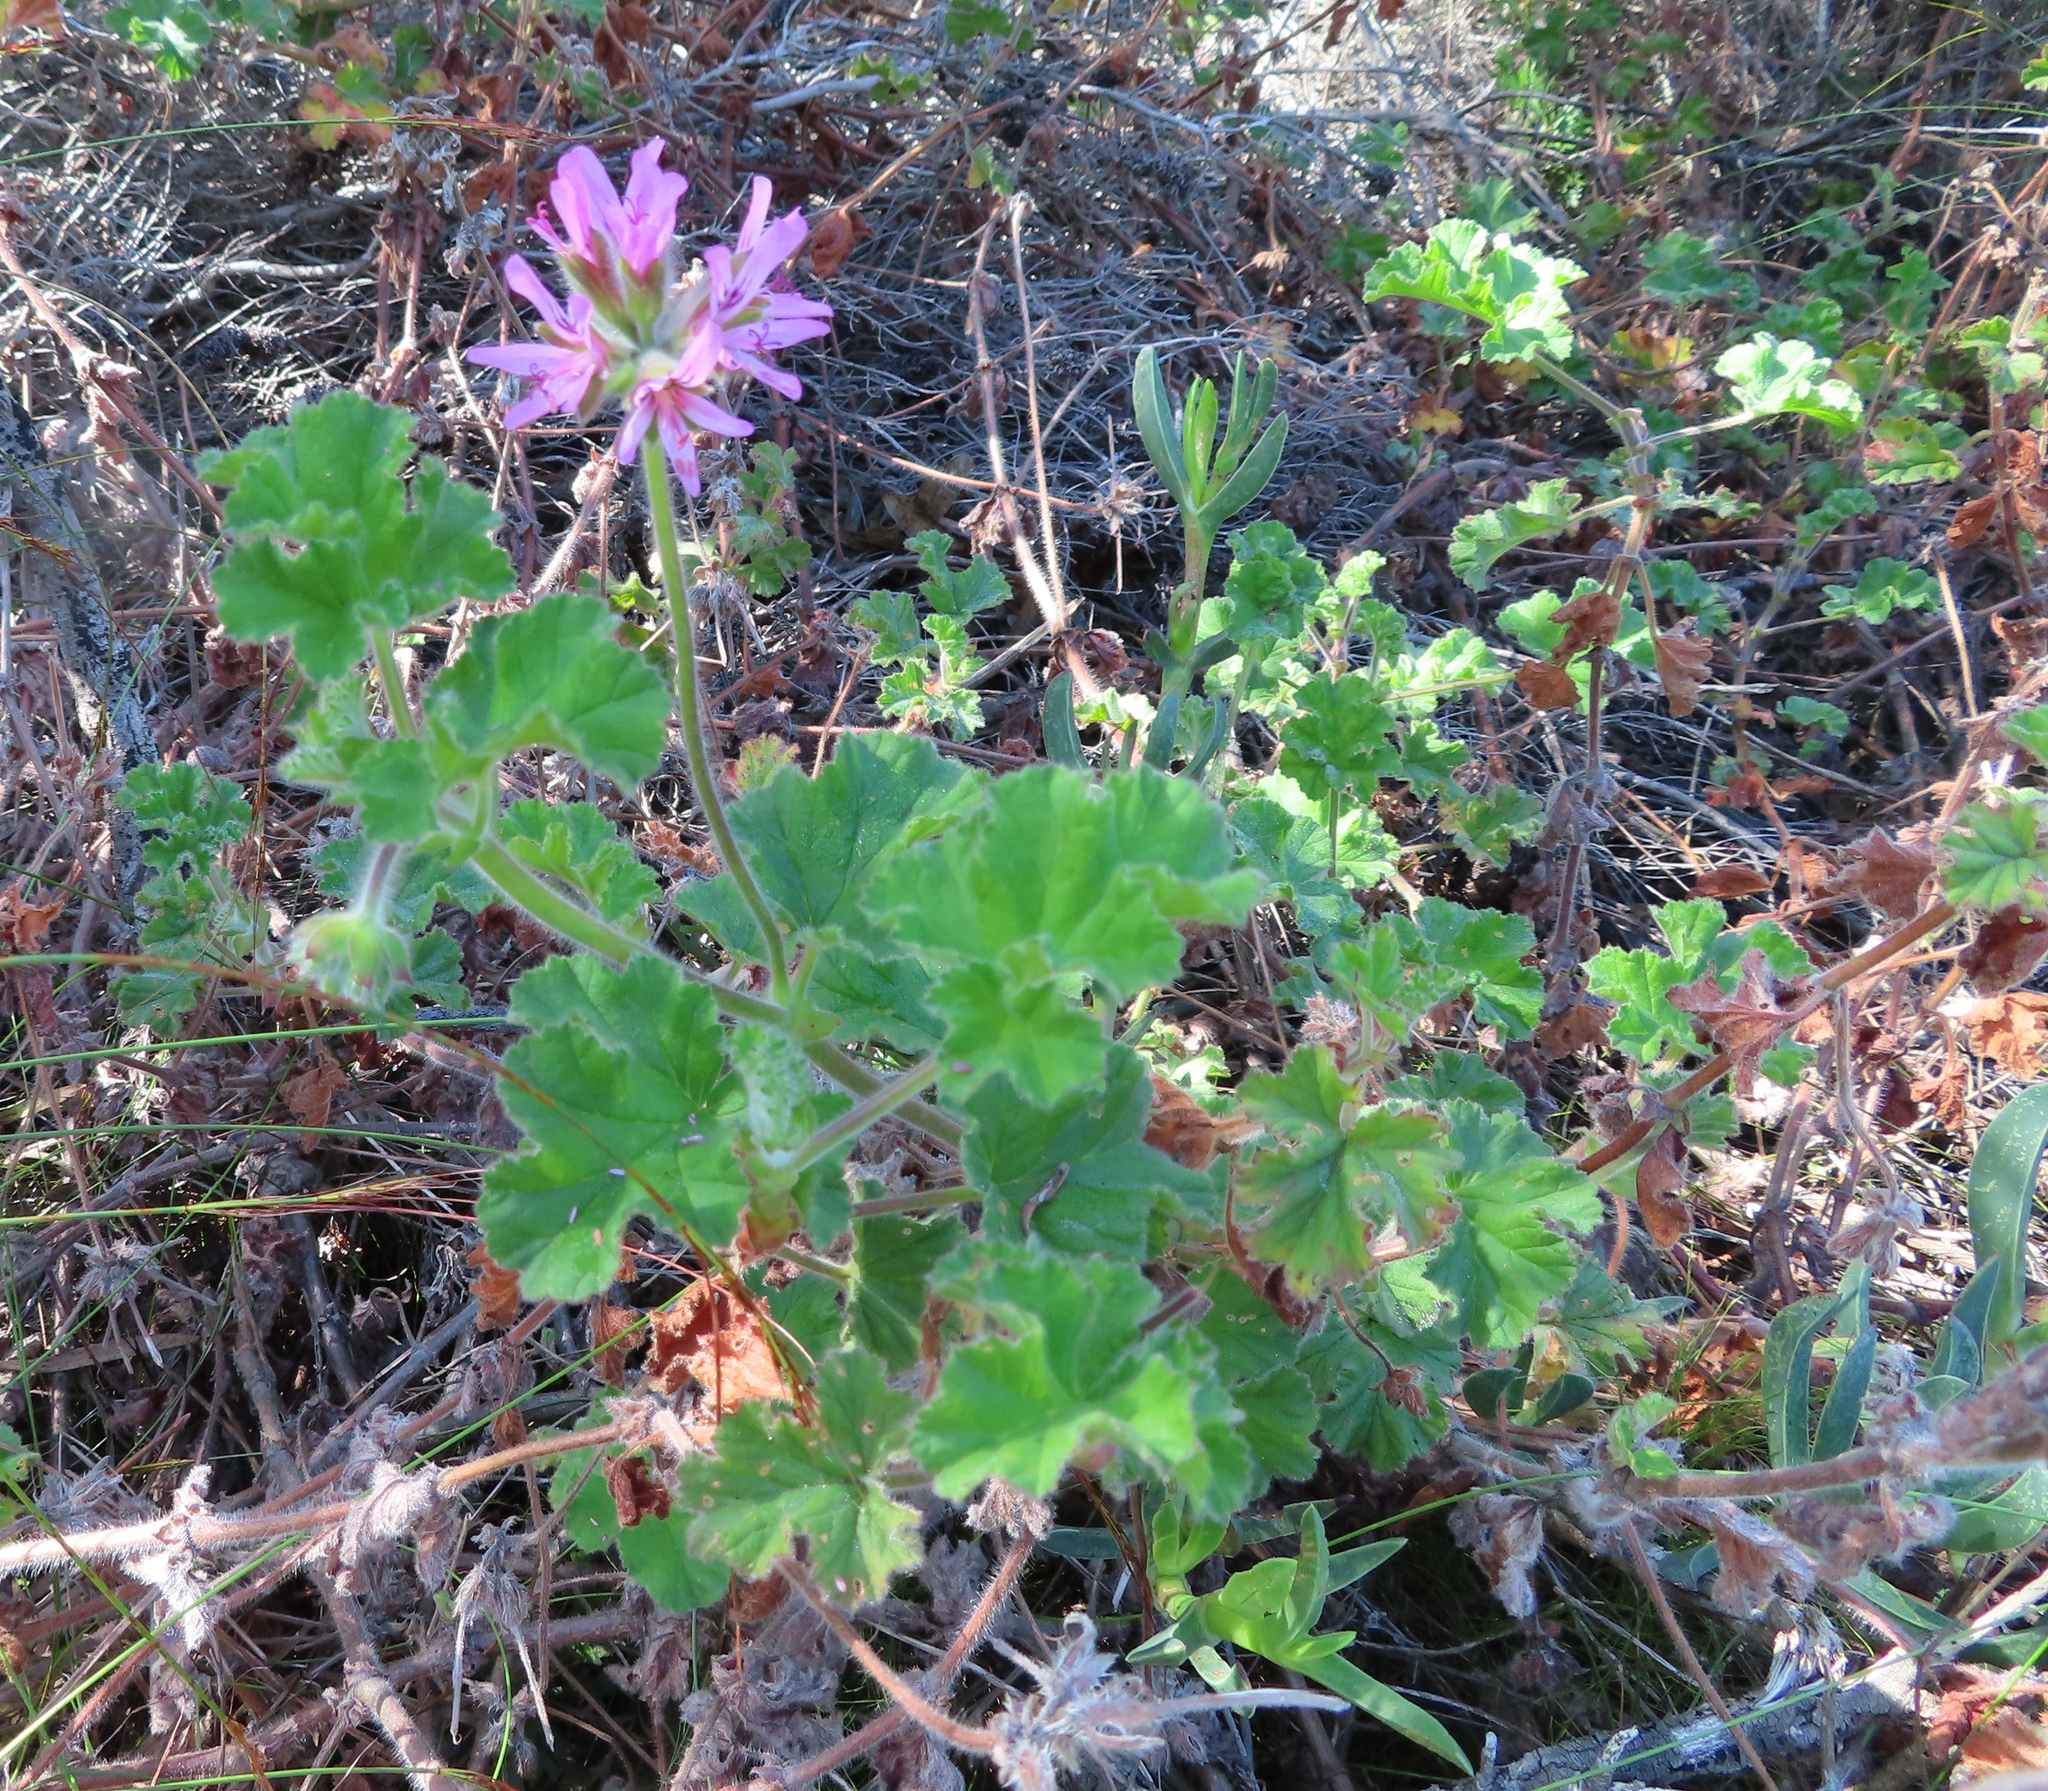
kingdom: Plantae
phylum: Tracheophyta
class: Magnoliopsida
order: Geraniales
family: Geraniaceae
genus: Pelargonium
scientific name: Pelargonium capitatum
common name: Rose scented geranium
